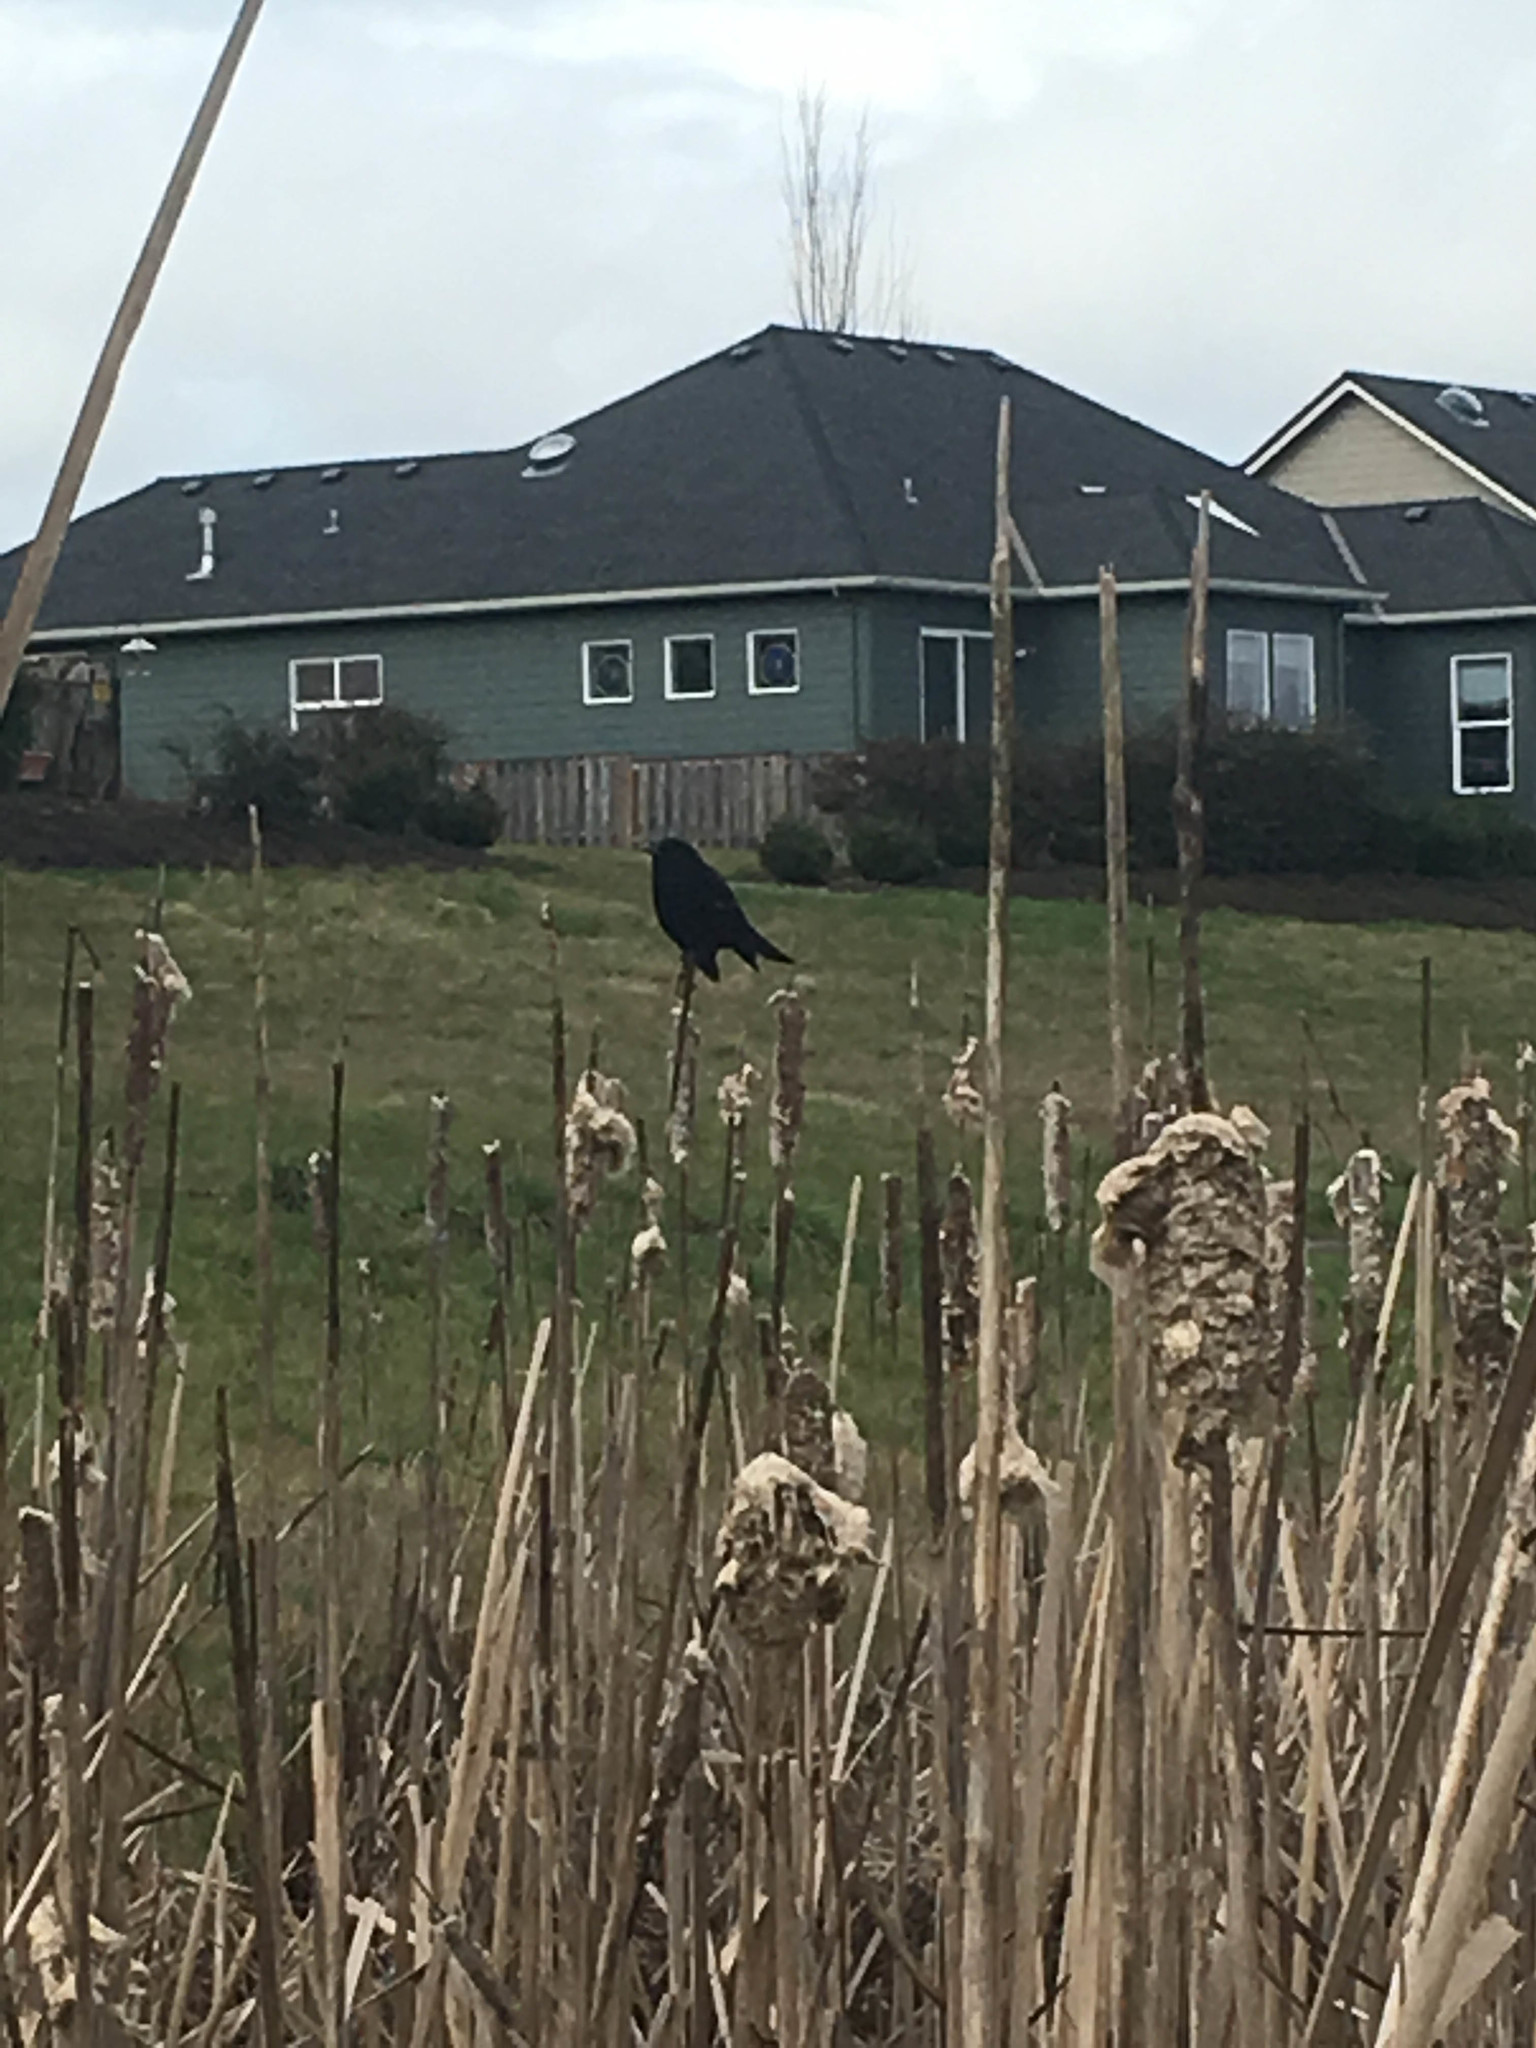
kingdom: Animalia
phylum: Chordata
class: Aves
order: Passeriformes
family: Icteridae
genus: Agelaius
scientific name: Agelaius phoeniceus
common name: Red-winged blackbird
